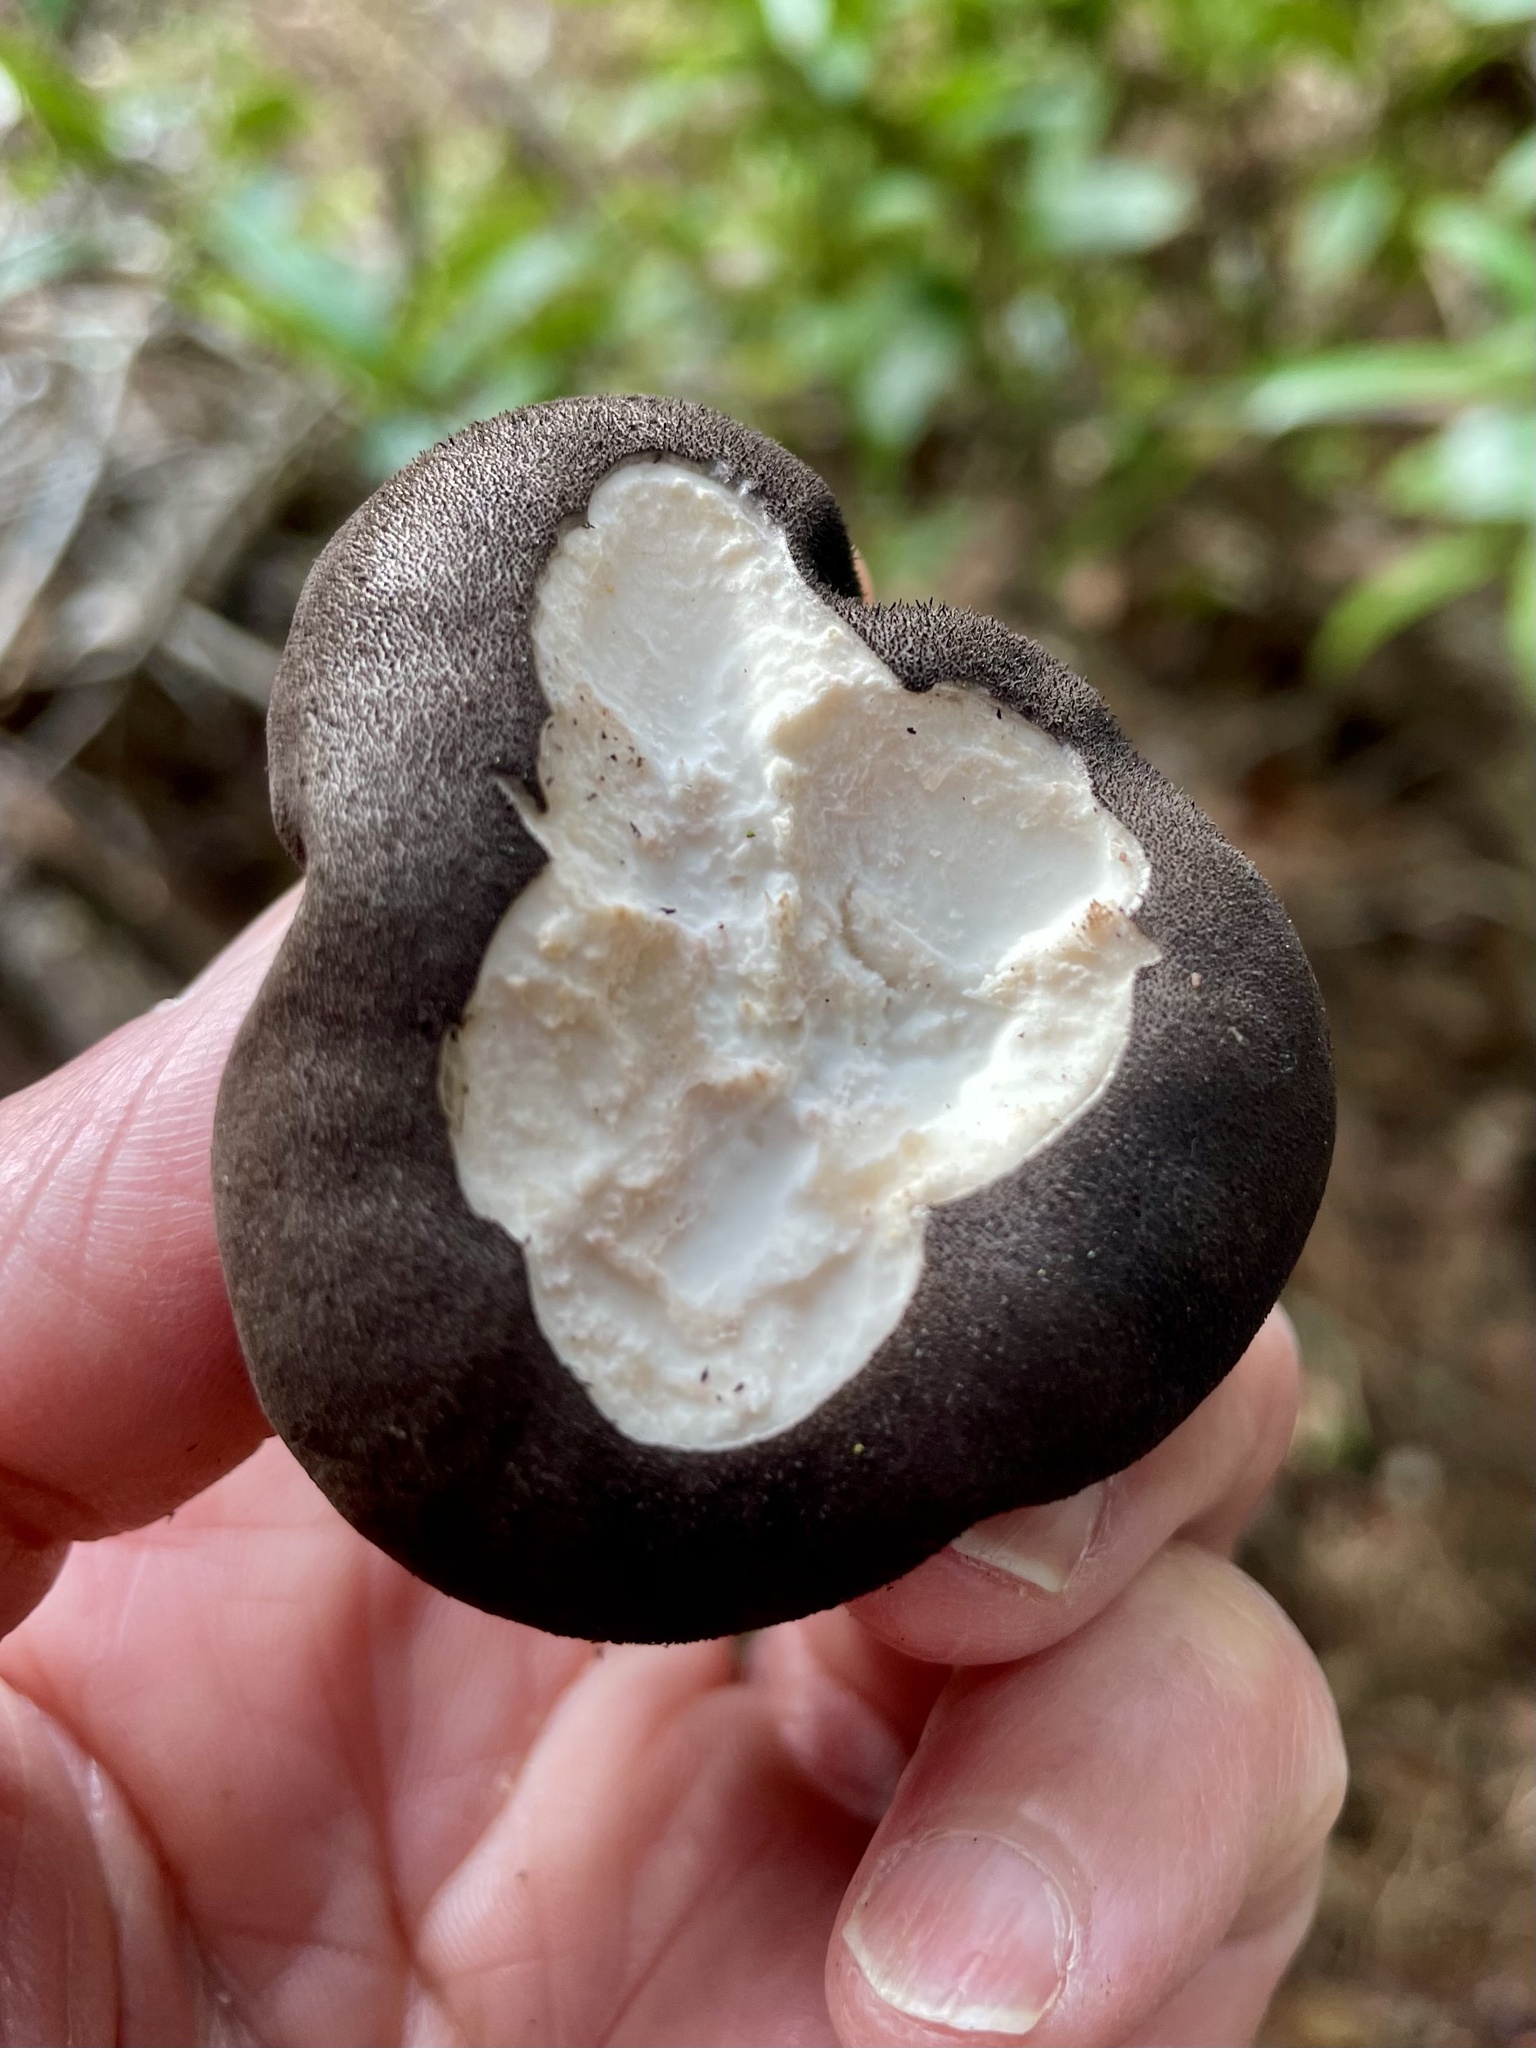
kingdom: Fungi
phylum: Basidiomycota
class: Agaricomycetes
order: Agaricales
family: Lycoperdaceae
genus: Lycoperdon
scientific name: Lycoperdon umbrinum
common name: Umber-brown puffball
